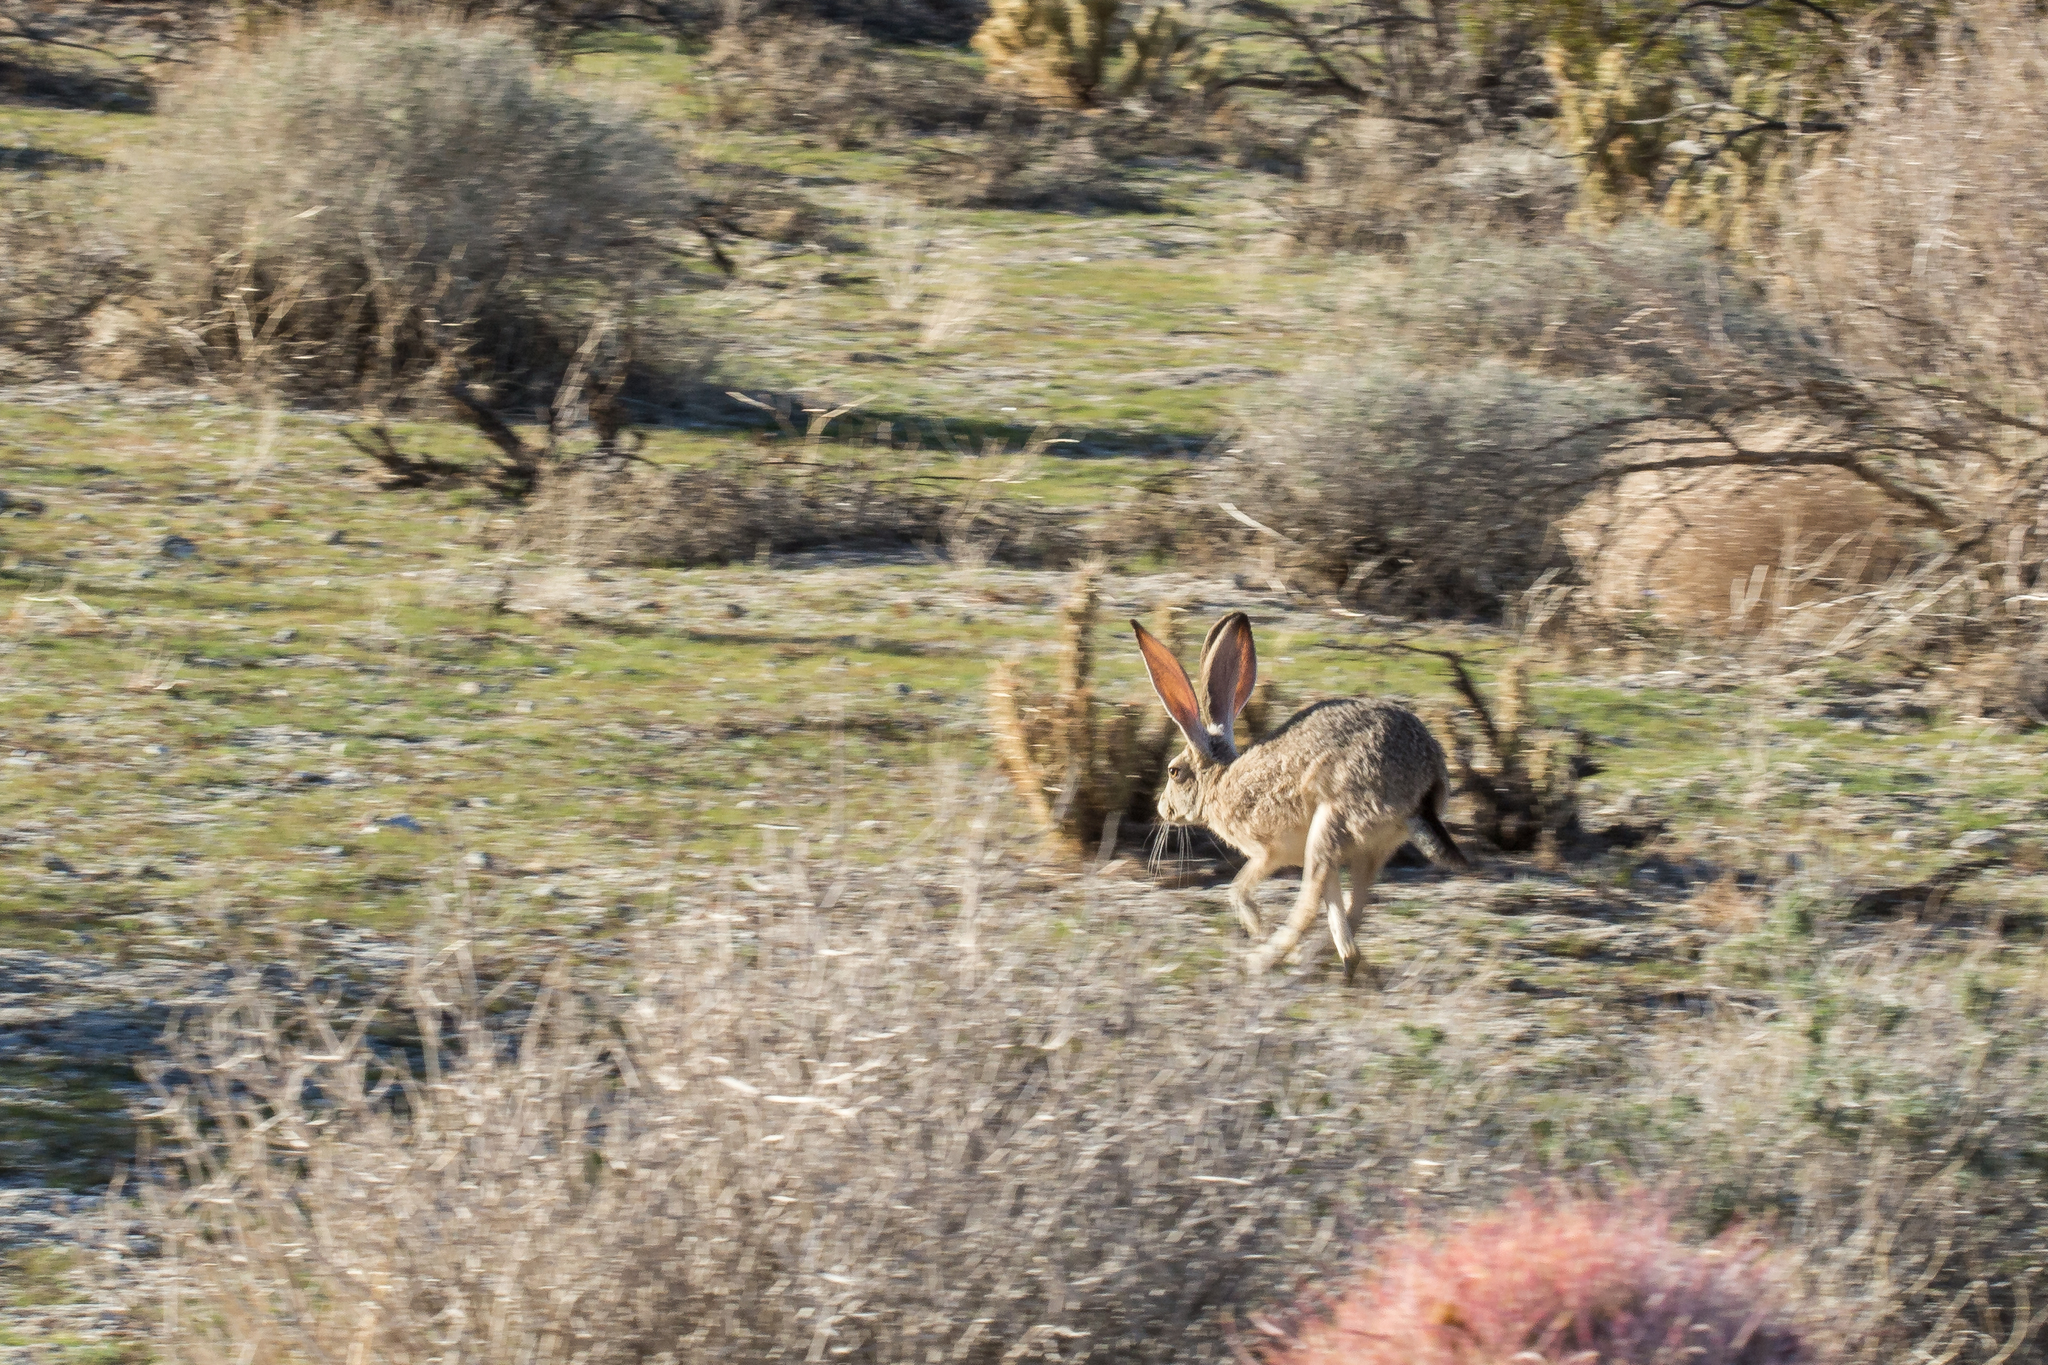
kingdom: Animalia
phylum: Chordata
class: Mammalia
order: Lagomorpha
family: Leporidae
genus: Lepus
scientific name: Lepus californicus
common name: Black-tailed jackrabbit
